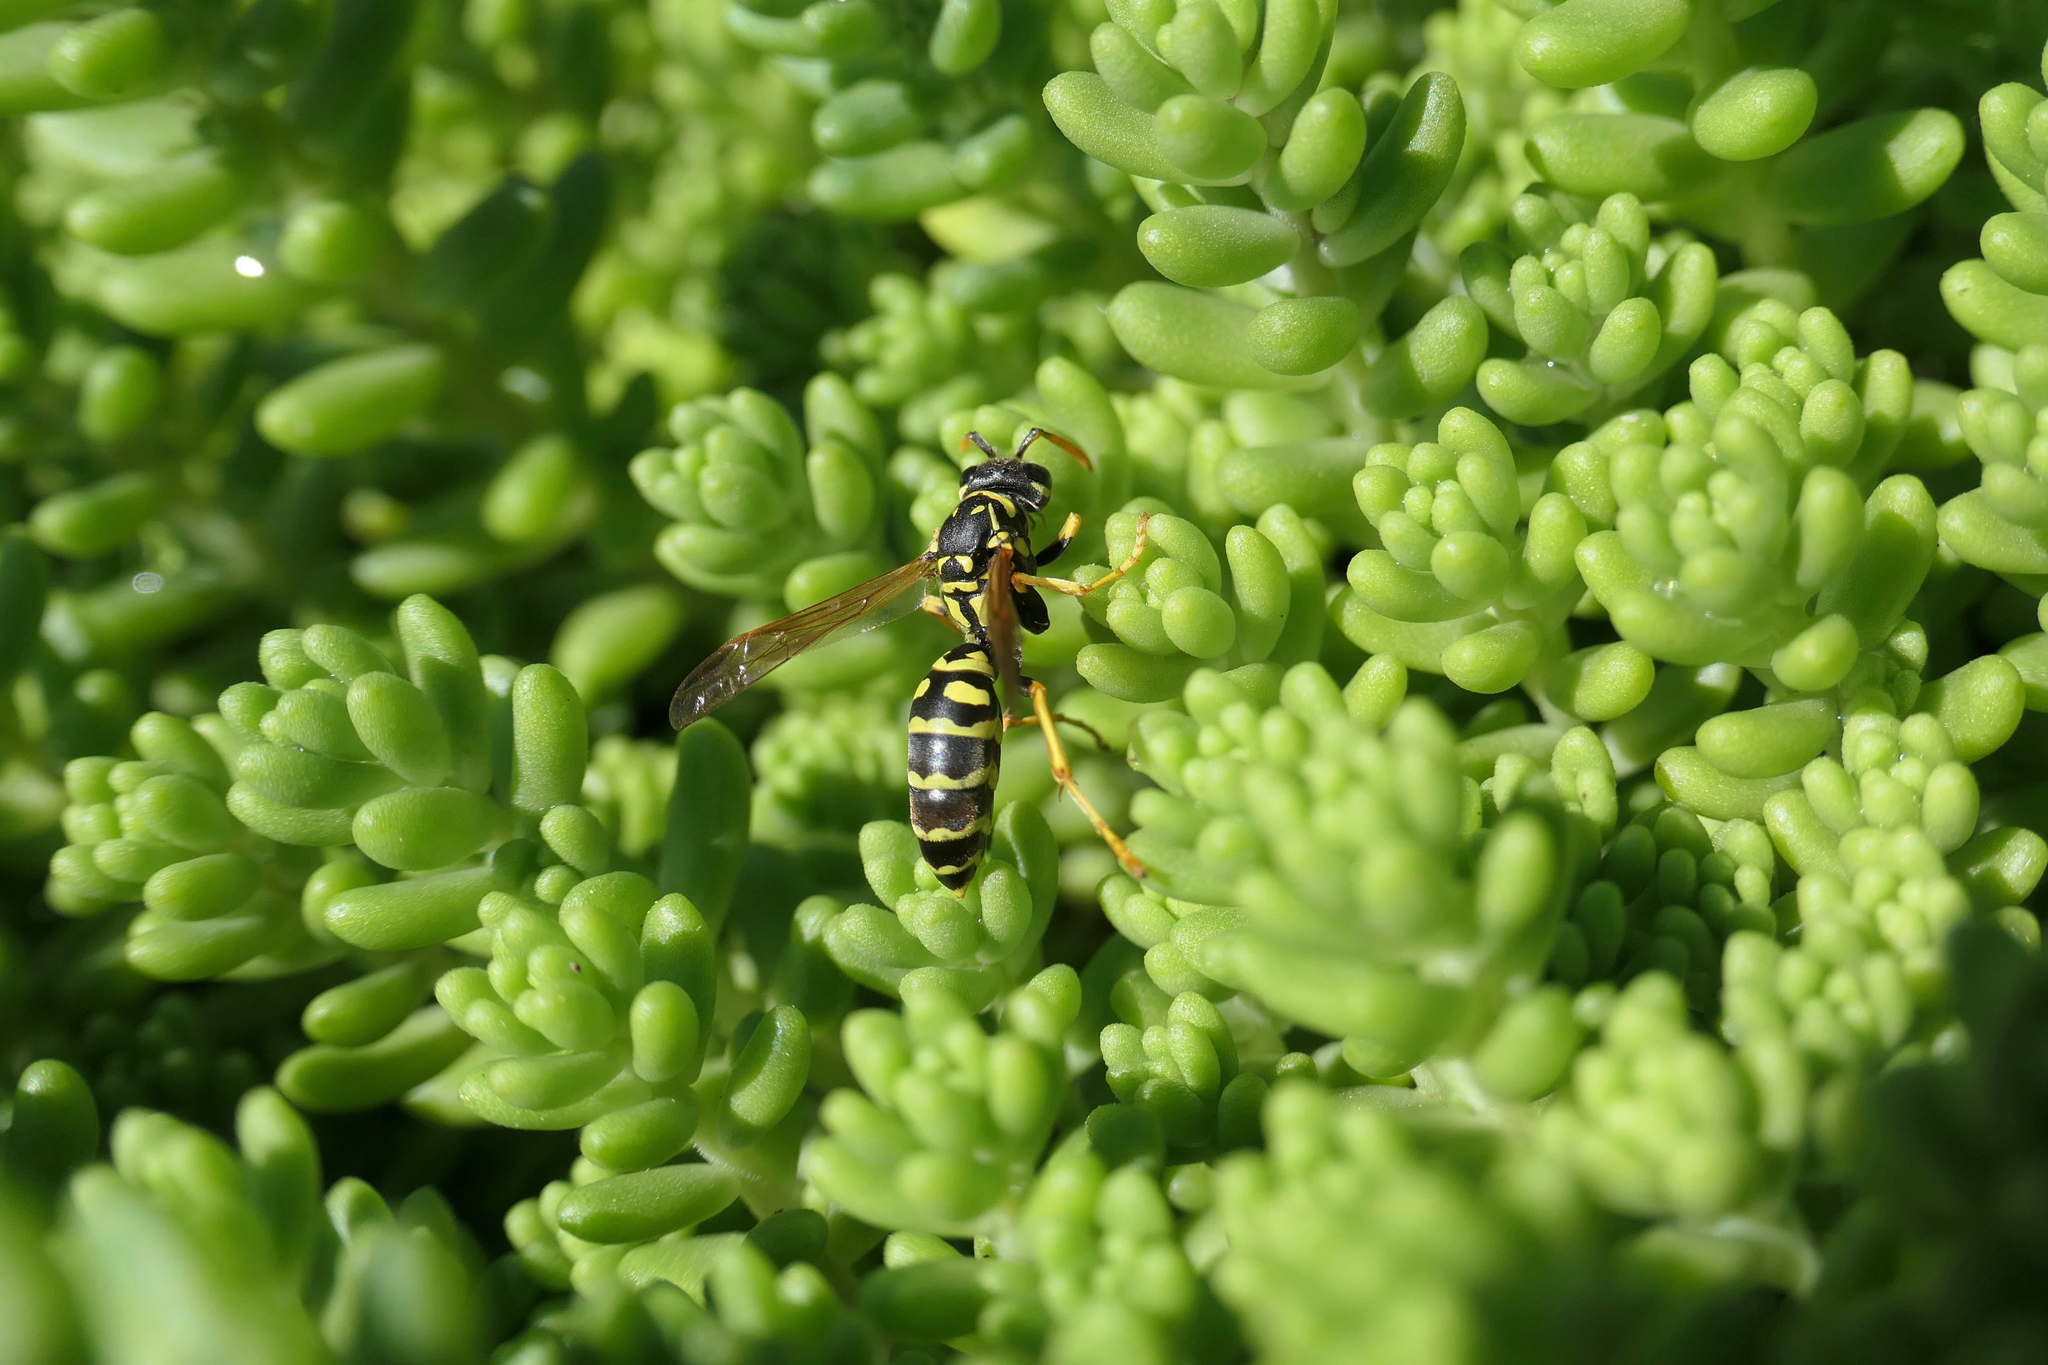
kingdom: Animalia
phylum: Arthropoda
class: Insecta
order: Hymenoptera
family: Eumenidae
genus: Polistes
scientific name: Polistes dominula
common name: Paper wasp
